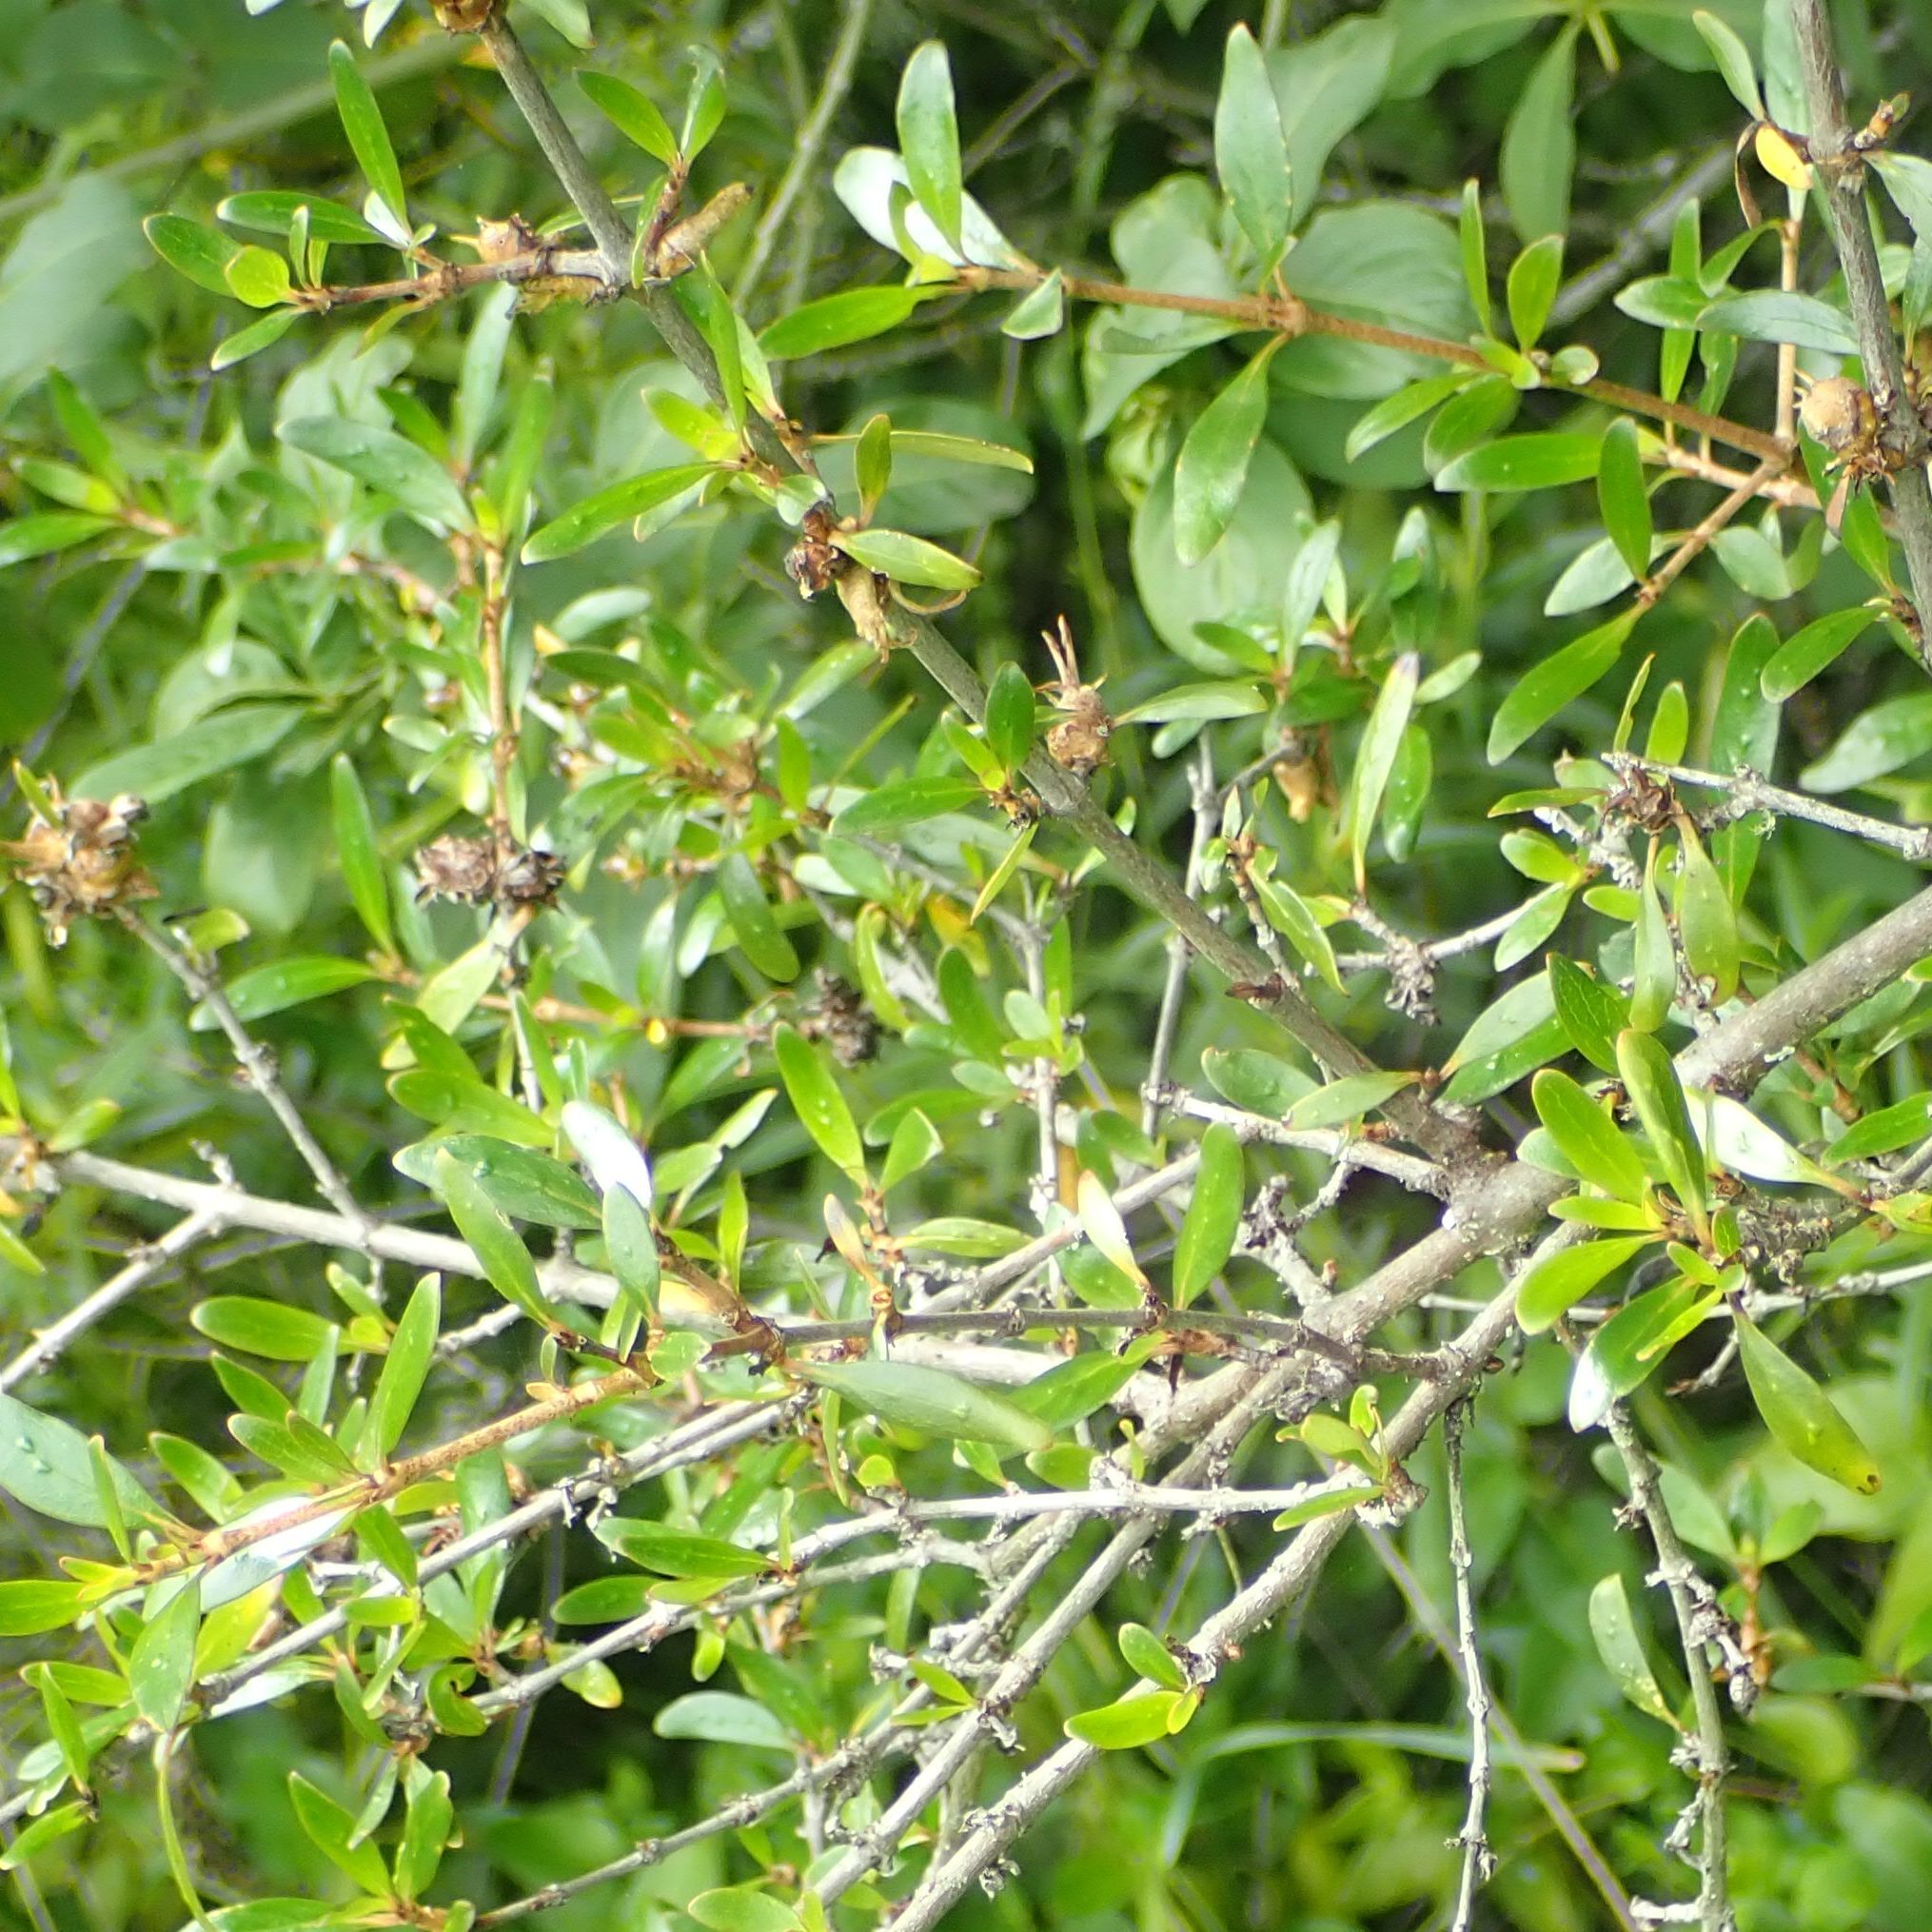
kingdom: Plantae
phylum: Tracheophyta
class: Magnoliopsida
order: Gentianales
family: Rubiaceae
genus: Coprosma
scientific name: Coprosma cunninghamii
